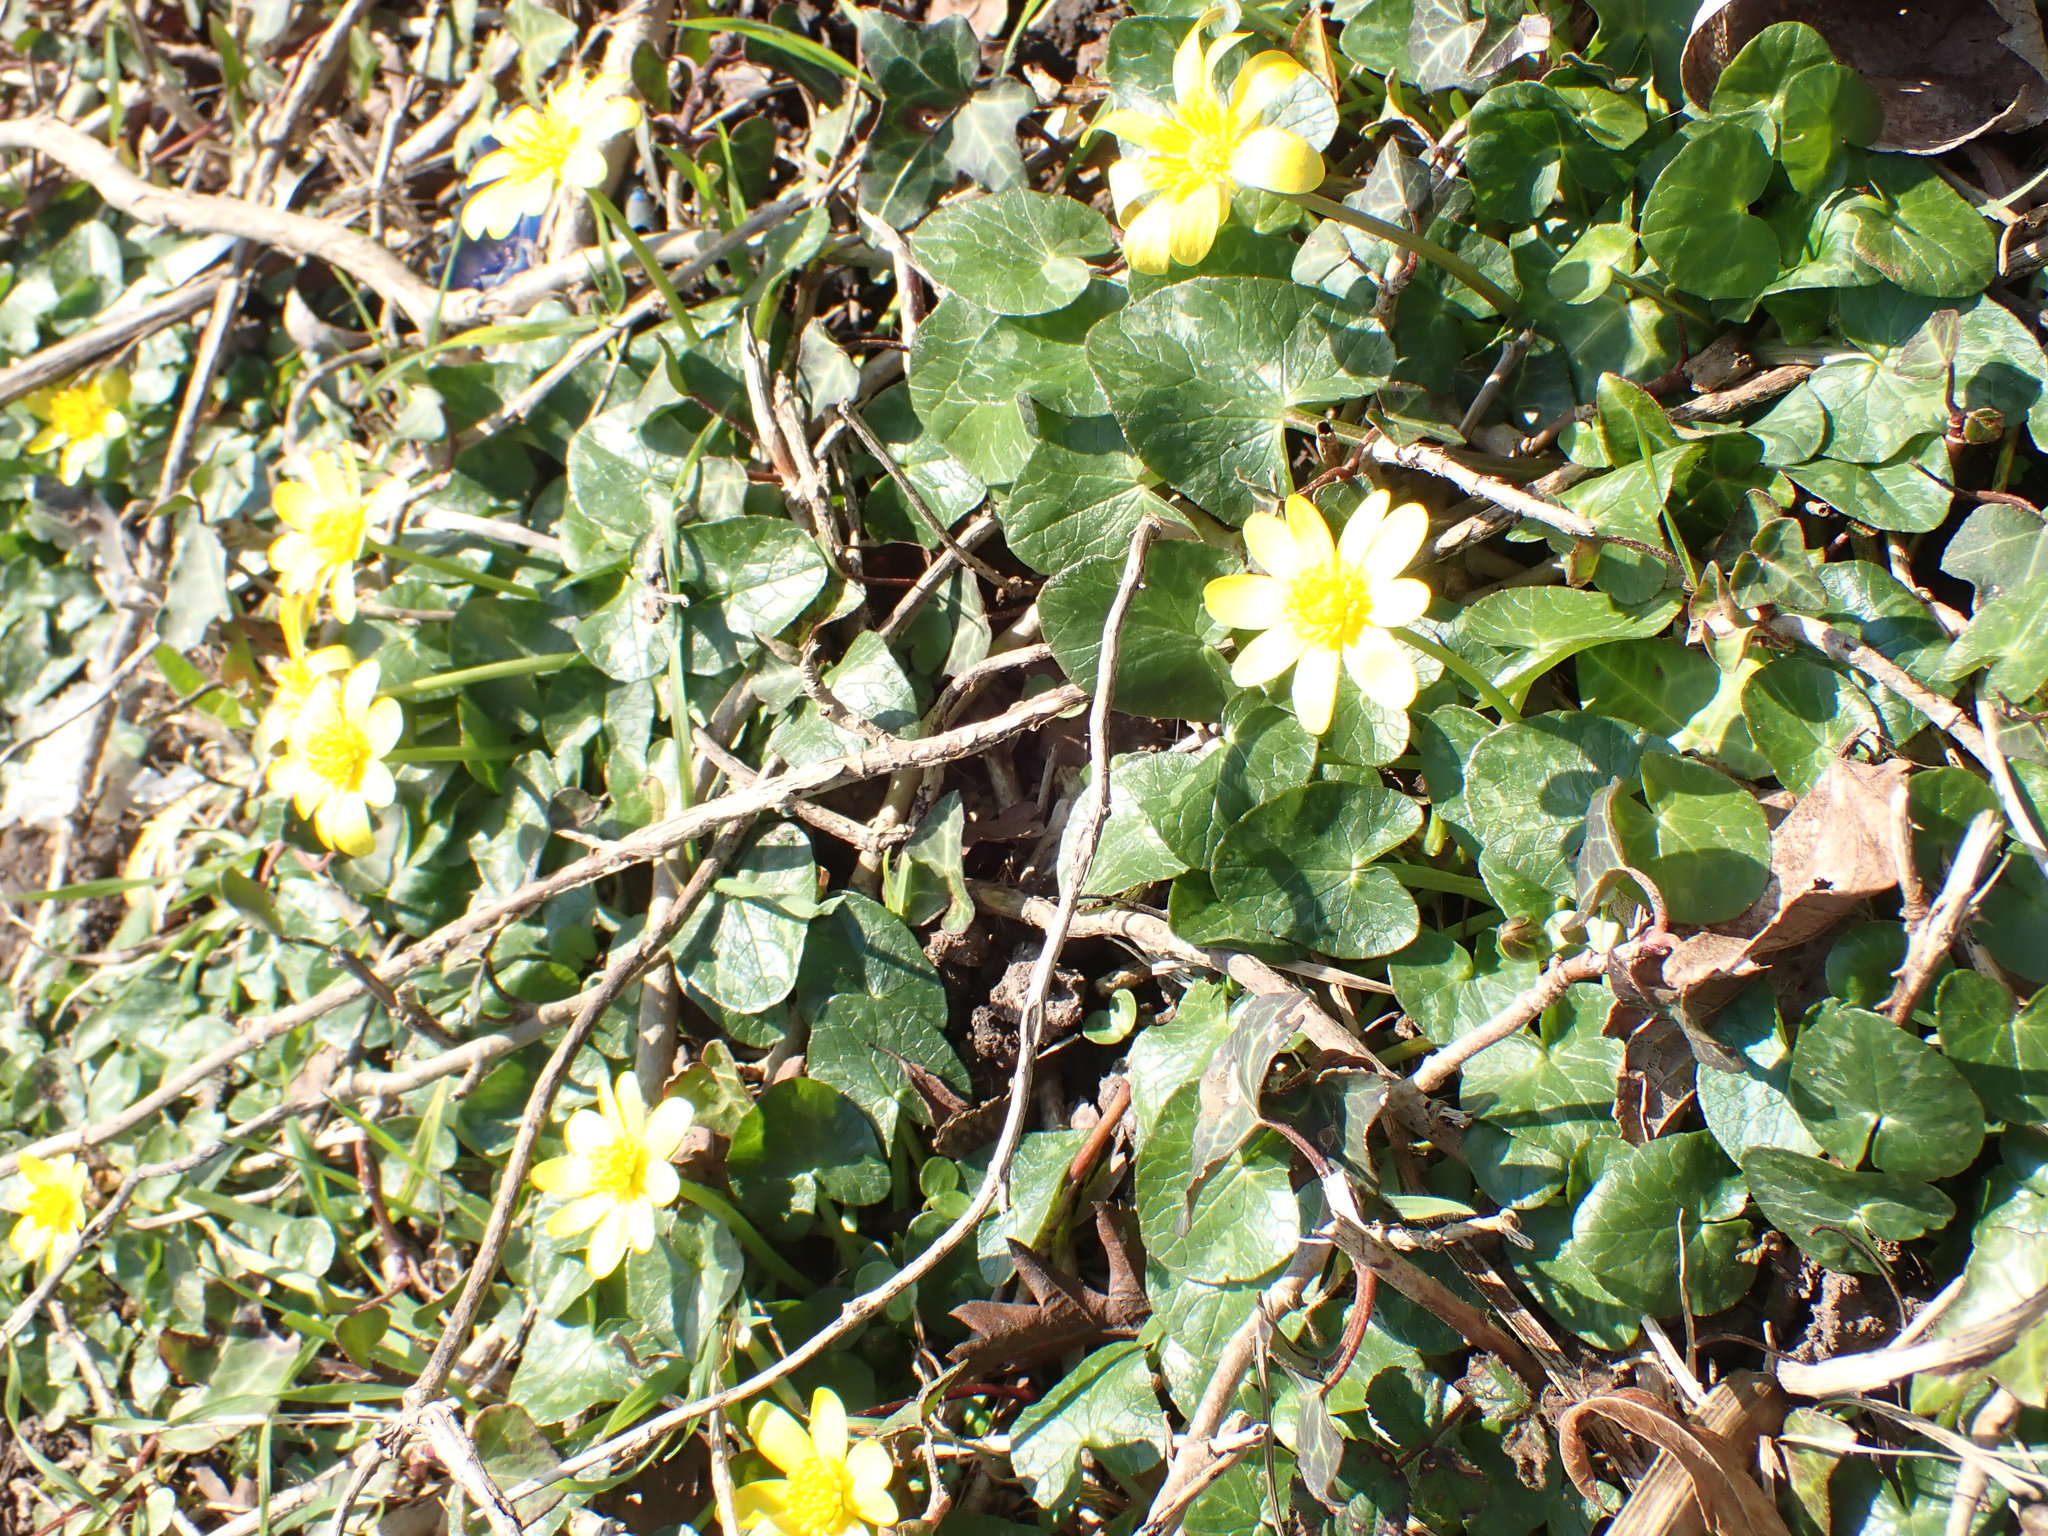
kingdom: Plantae
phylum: Tracheophyta
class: Magnoliopsida
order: Ranunculales
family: Ranunculaceae
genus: Ficaria
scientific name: Ficaria verna
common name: Lesser celandine
